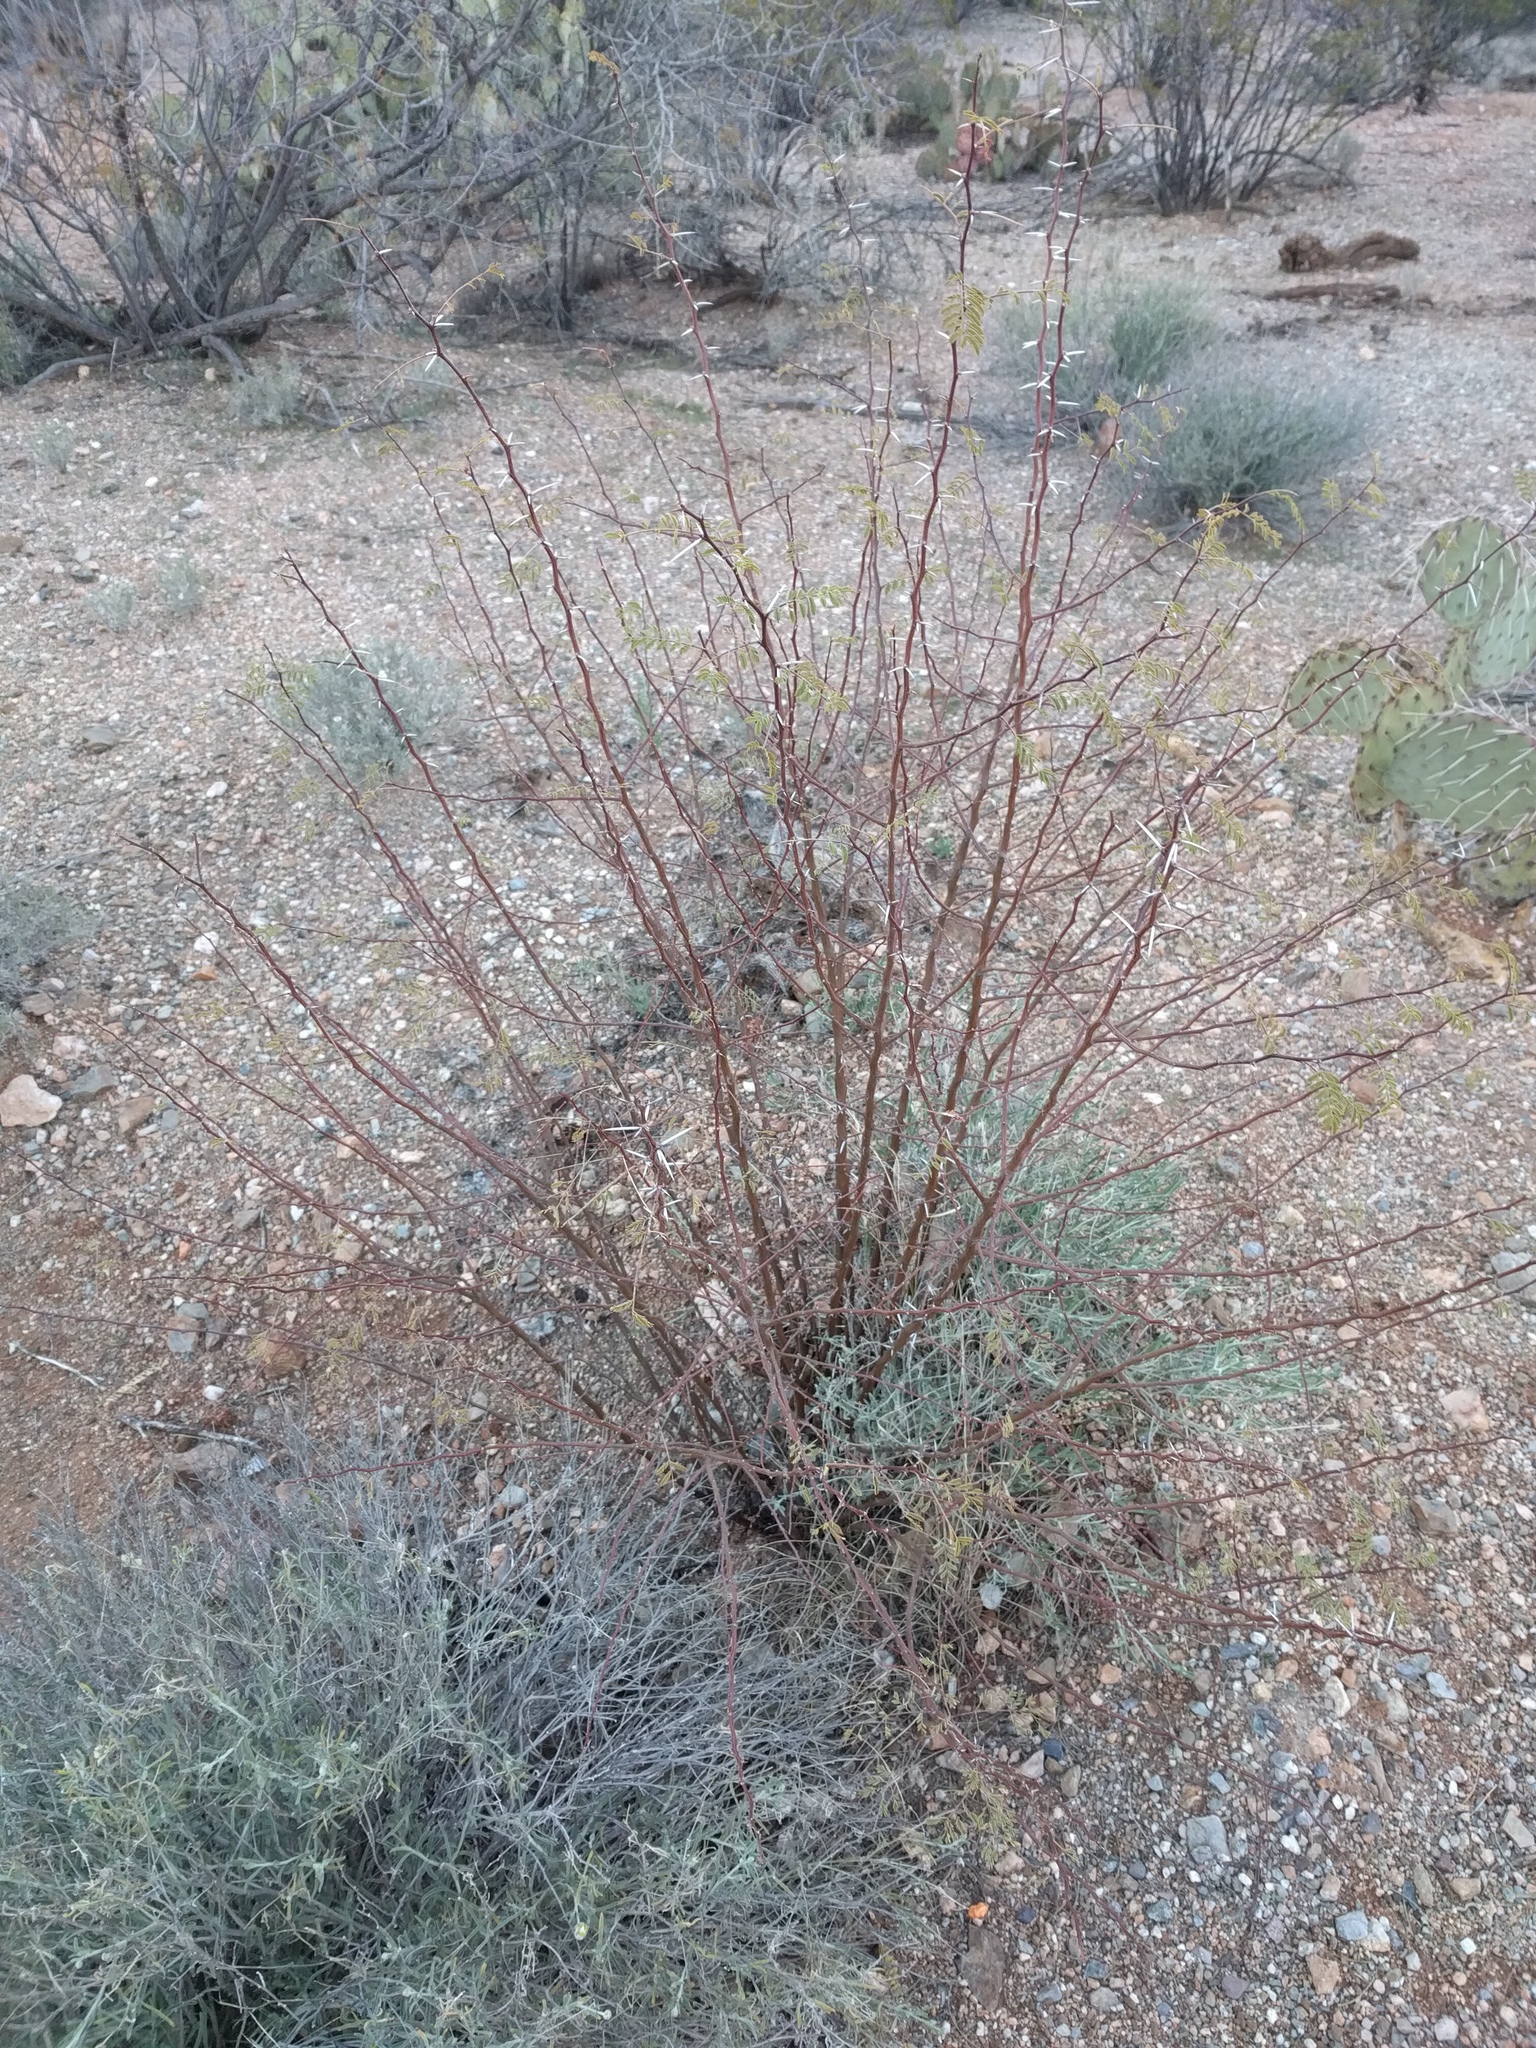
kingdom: Plantae
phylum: Tracheophyta
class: Magnoliopsida
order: Fabales
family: Fabaceae
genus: Vachellia
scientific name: Vachellia constricta
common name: Mescat acacia
